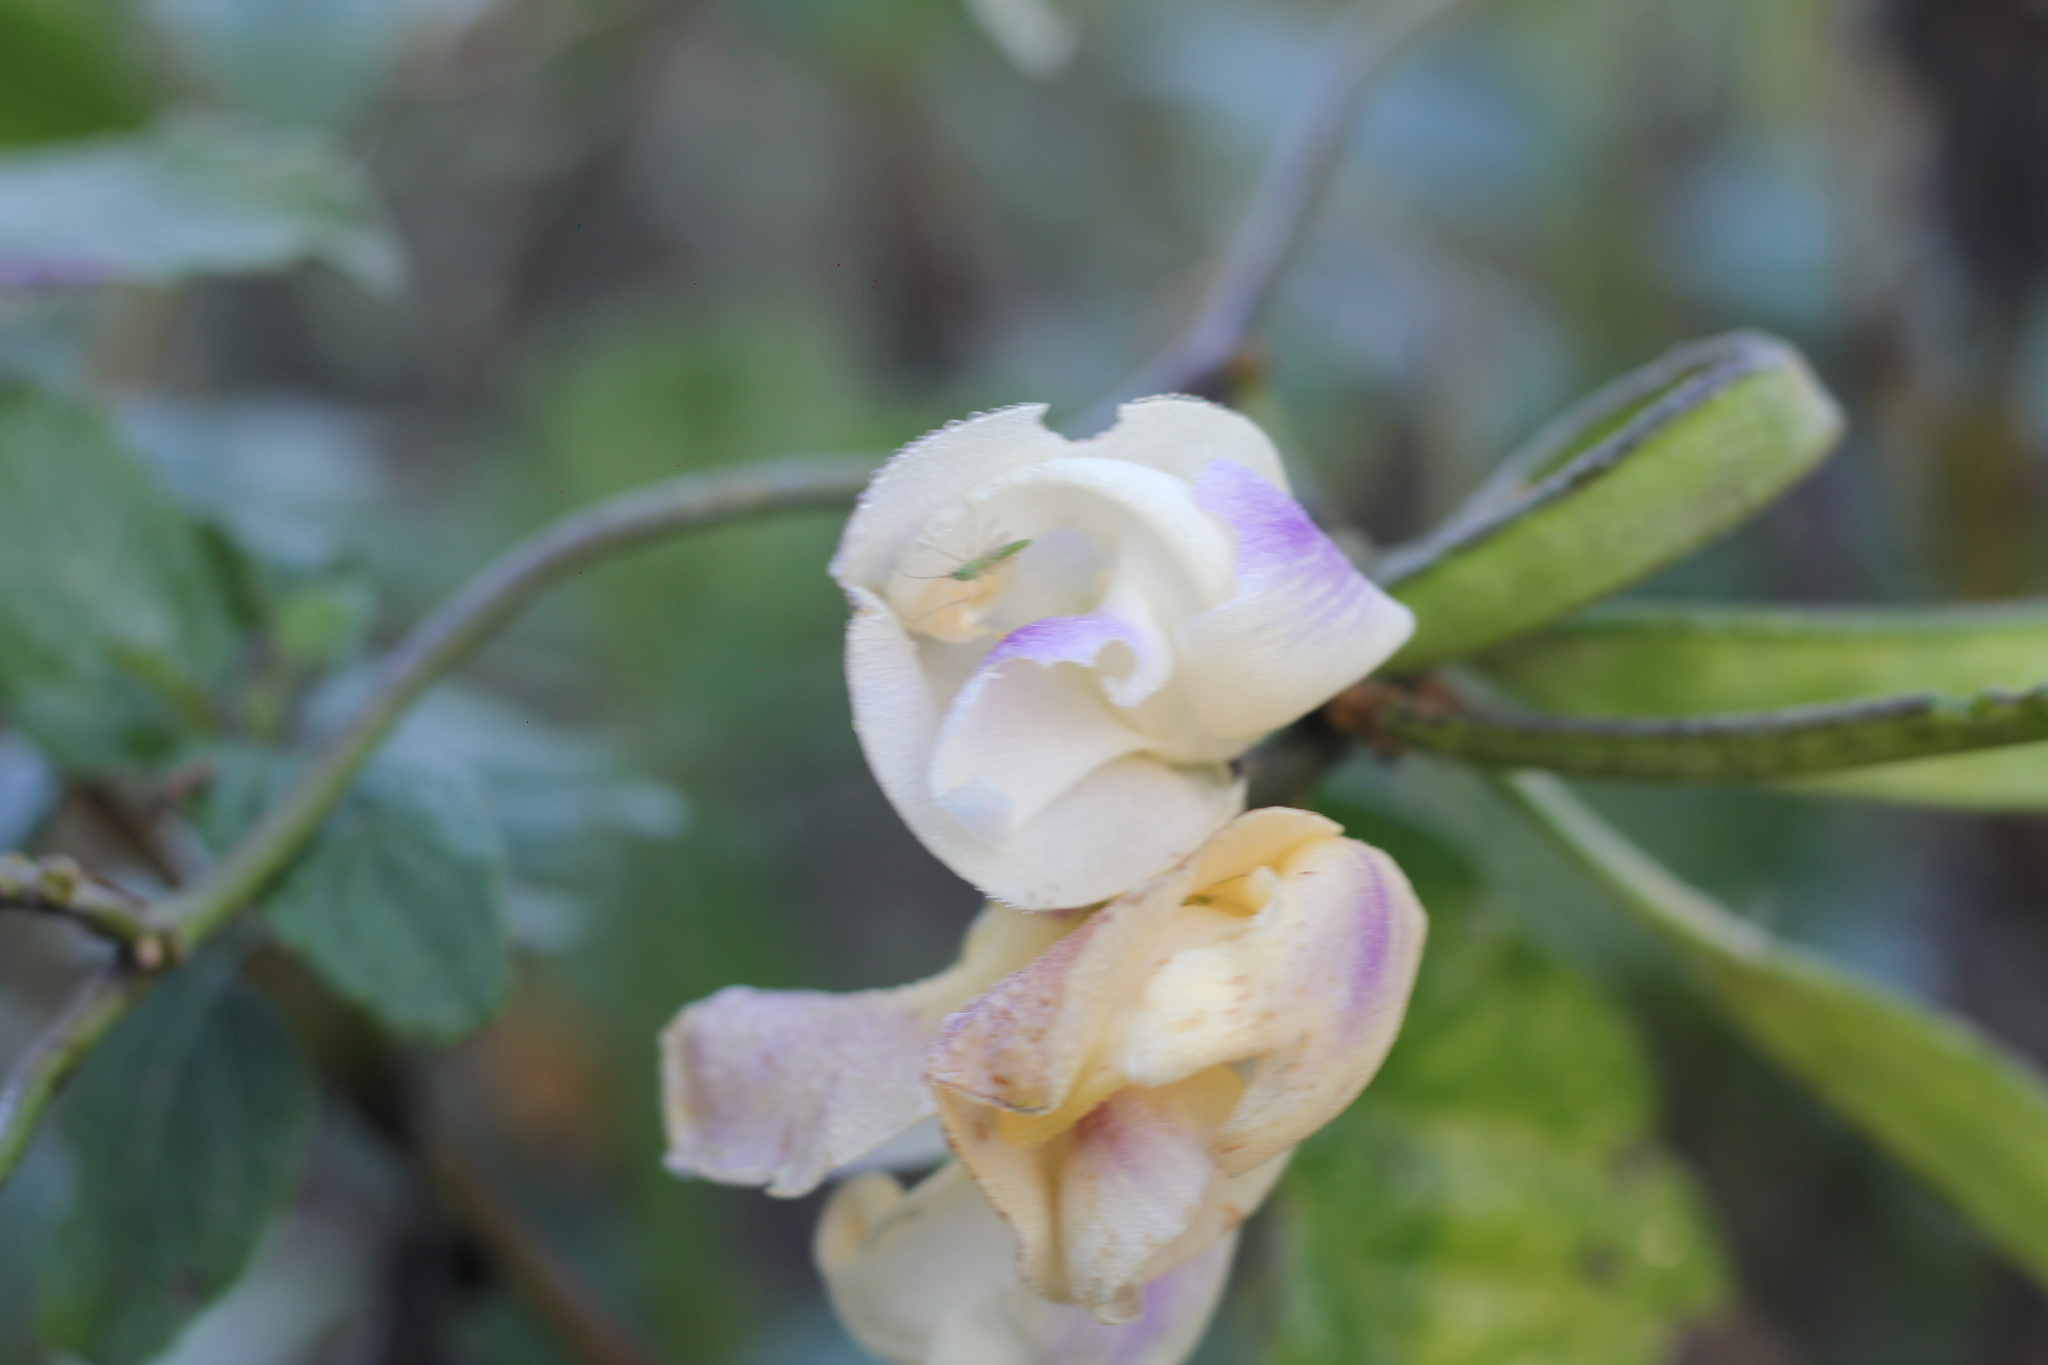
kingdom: Plantae
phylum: Tracheophyta
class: Magnoliopsida
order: Fabales
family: Fabaceae
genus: Leptospron
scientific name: Leptospron adenanthum
